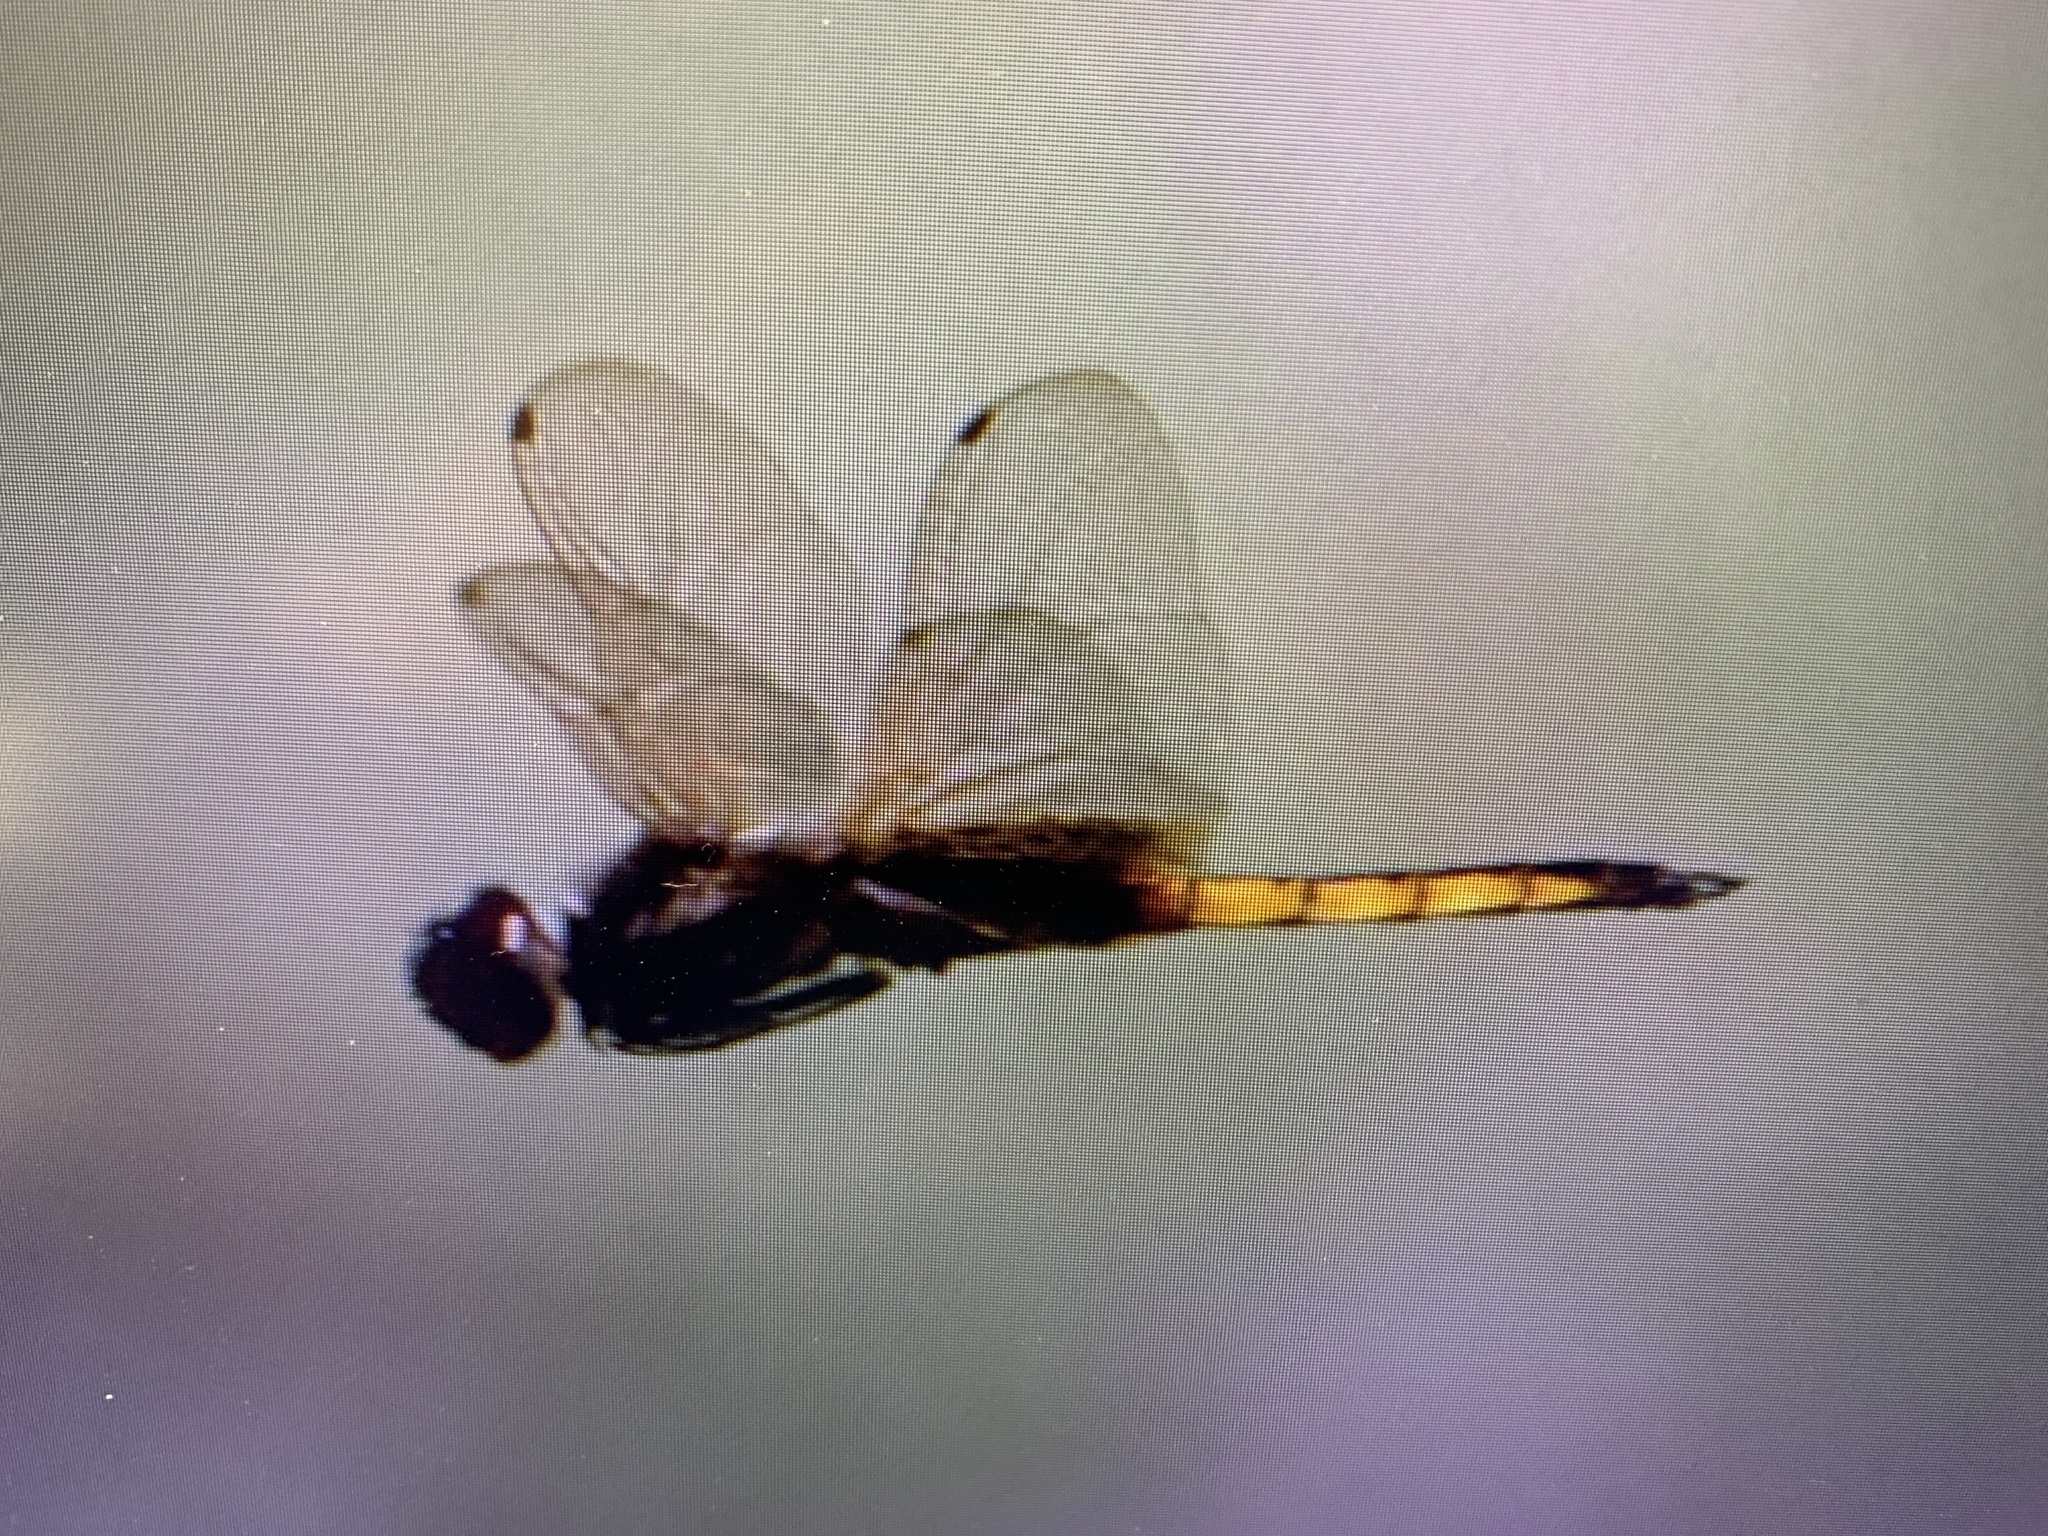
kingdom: Animalia
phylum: Arthropoda
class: Insecta
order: Odonata
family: Libellulidae
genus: Miathyria
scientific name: Miathyria marcella
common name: Hyacinth glider
